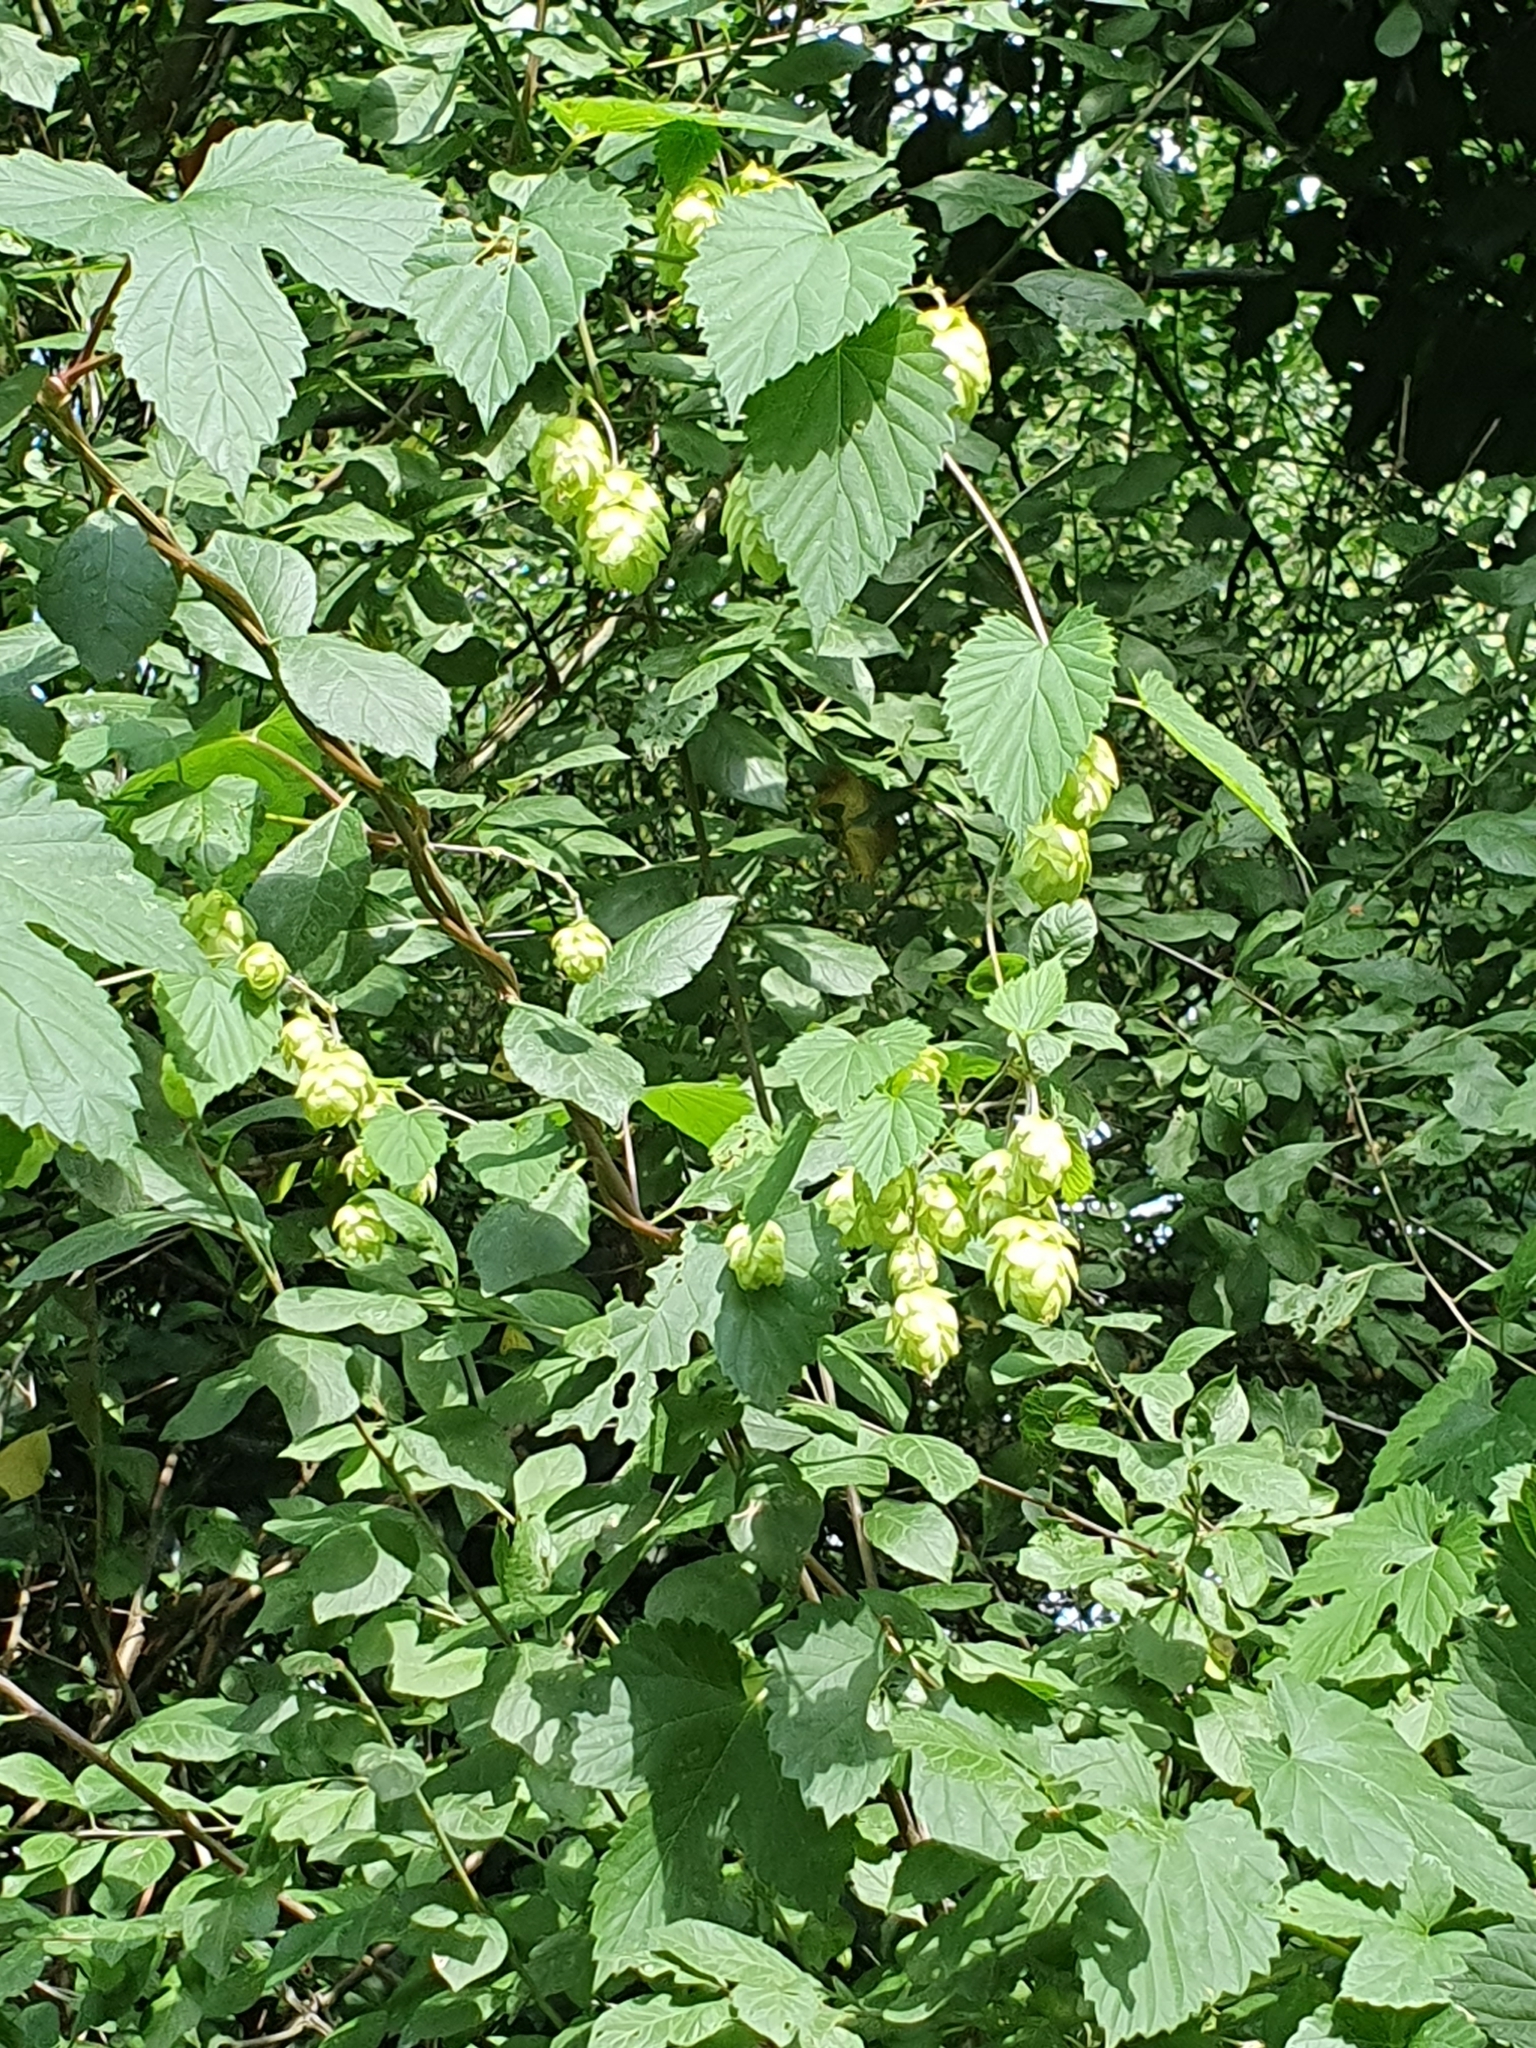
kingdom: Plantae
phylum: Tracheophyta
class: Magnoliopsida
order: Rosales
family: Cannabaceae
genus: Humulus
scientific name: Humulus lupulus
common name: Hop
